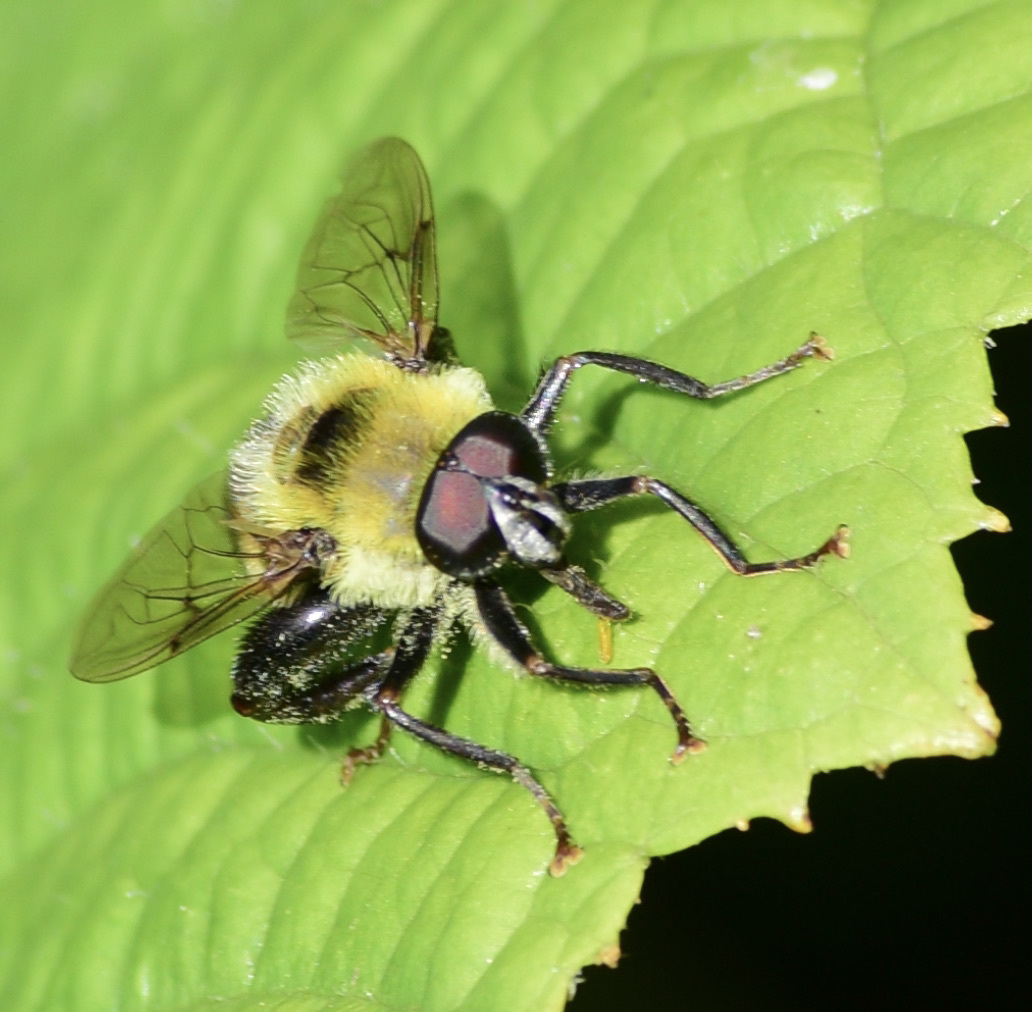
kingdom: Animalia
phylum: Arthropoda
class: Insecta
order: Diptera
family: Syrphidae
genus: Imatisma
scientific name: Imatisma posticata
